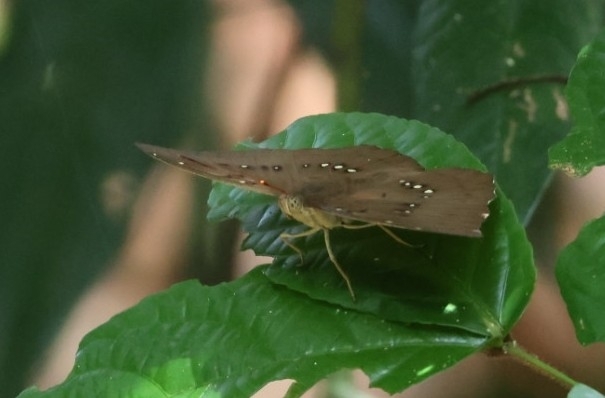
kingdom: Animalia
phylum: Arthropoda
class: Insecta
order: Lepidoptera
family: Nymphalidae
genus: Euthalia
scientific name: Euthalia Bassarona dunya
